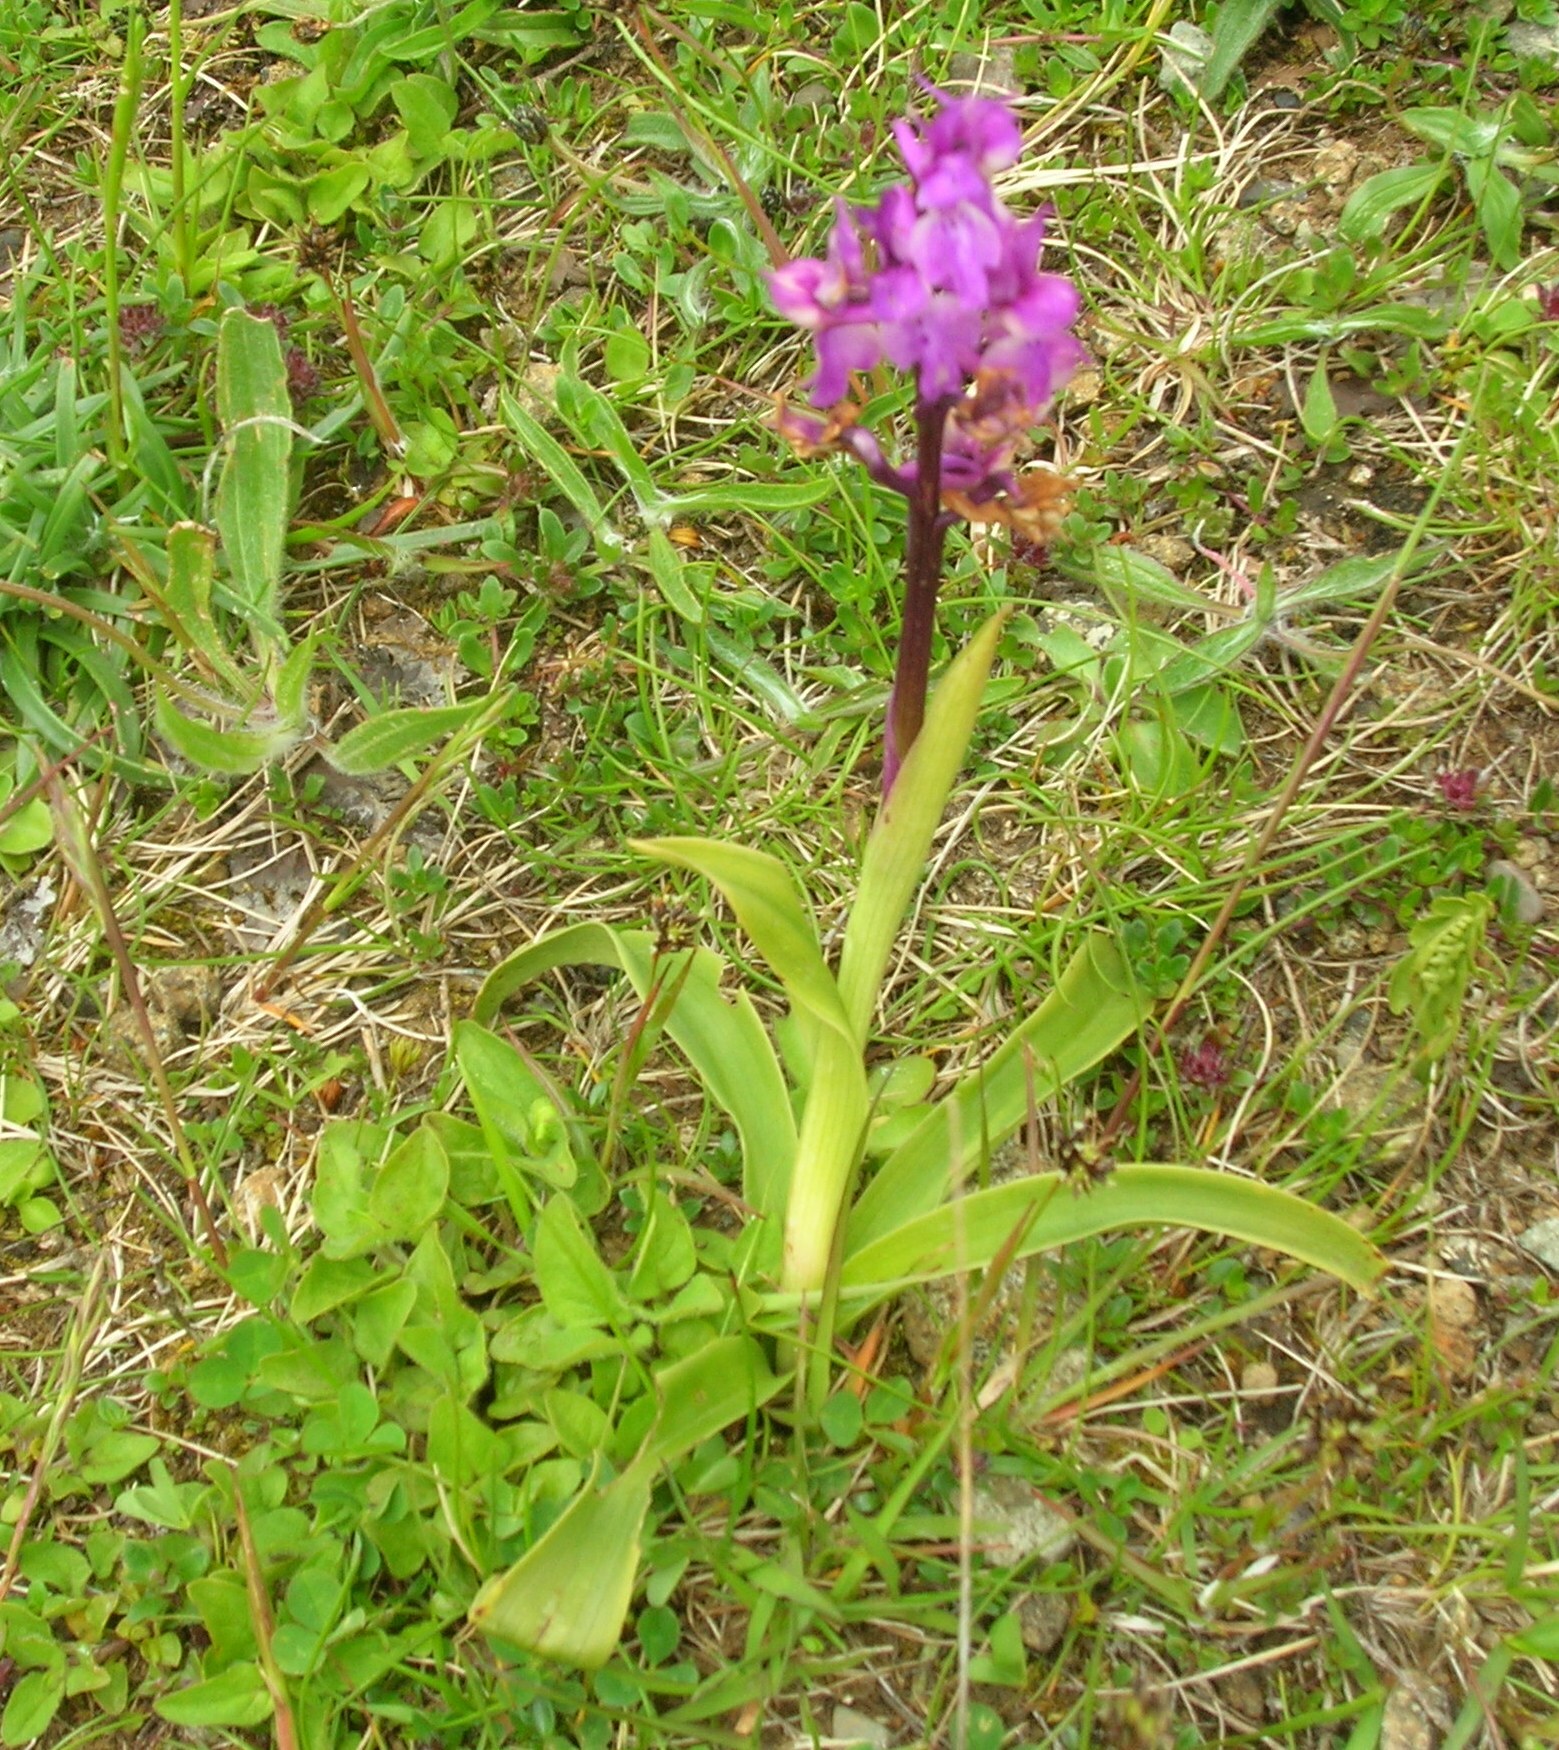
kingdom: Plantae
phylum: Tracheophyta
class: Liliopsida
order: Asparagales
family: Orchidaceae
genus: Orchis
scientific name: Orchis mascula
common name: Early-purple orchid
